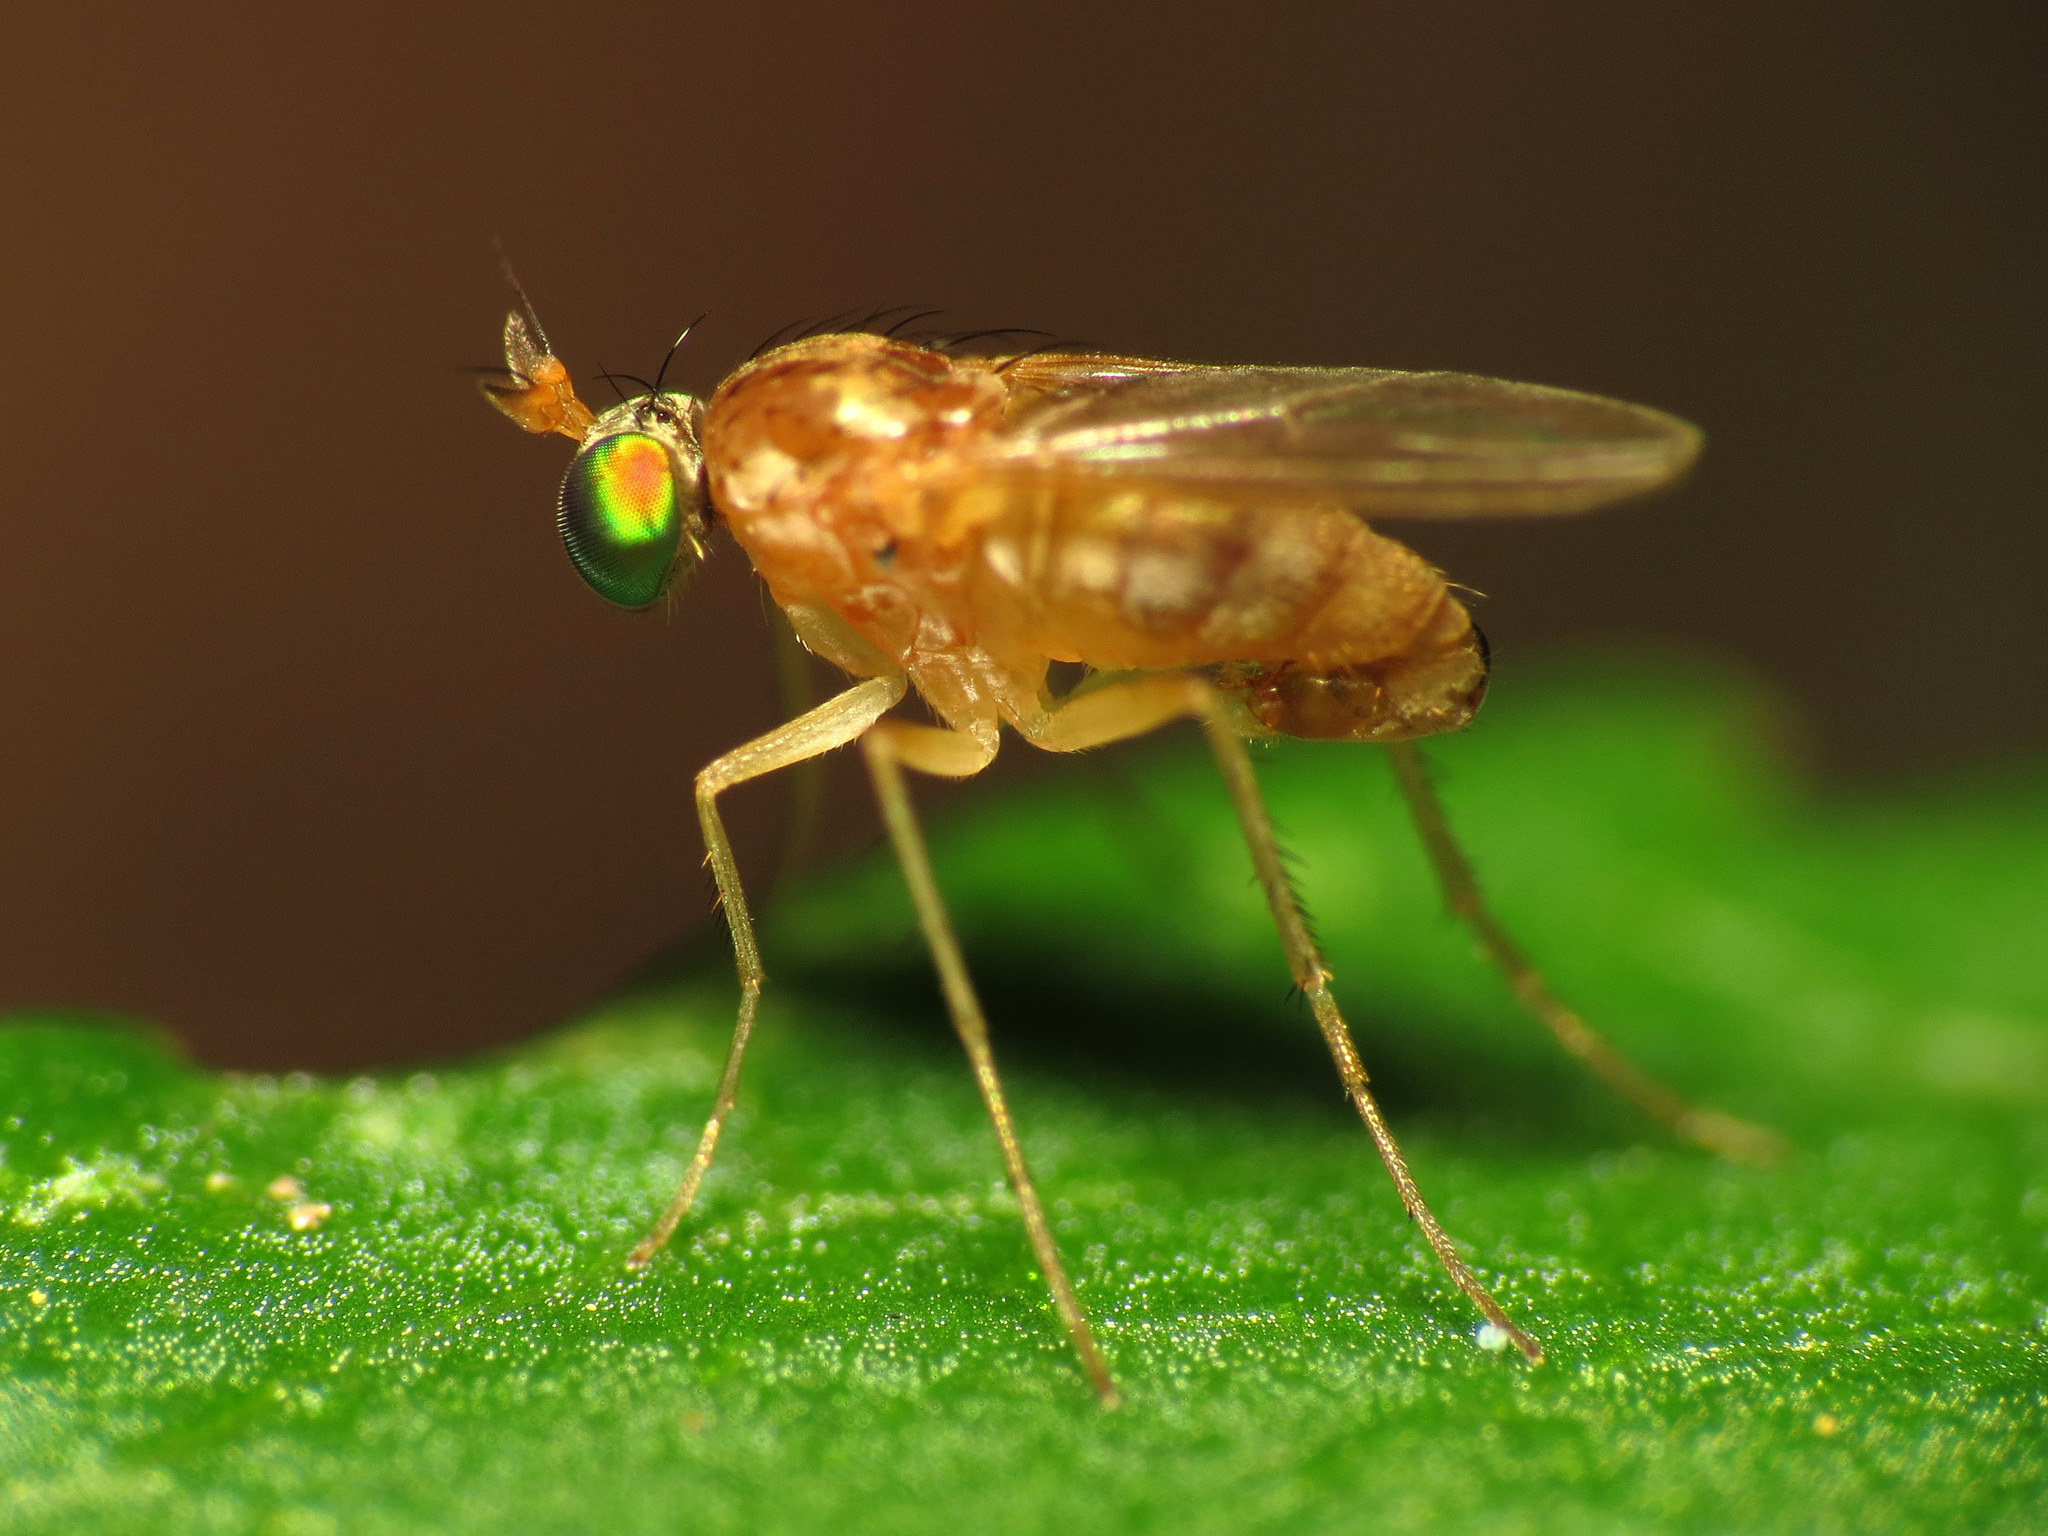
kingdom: Animalia
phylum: Arthropoda
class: Insecta
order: Diptera
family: Dolichopodidae
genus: Gymnopternus
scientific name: Gymnopternus flavus
